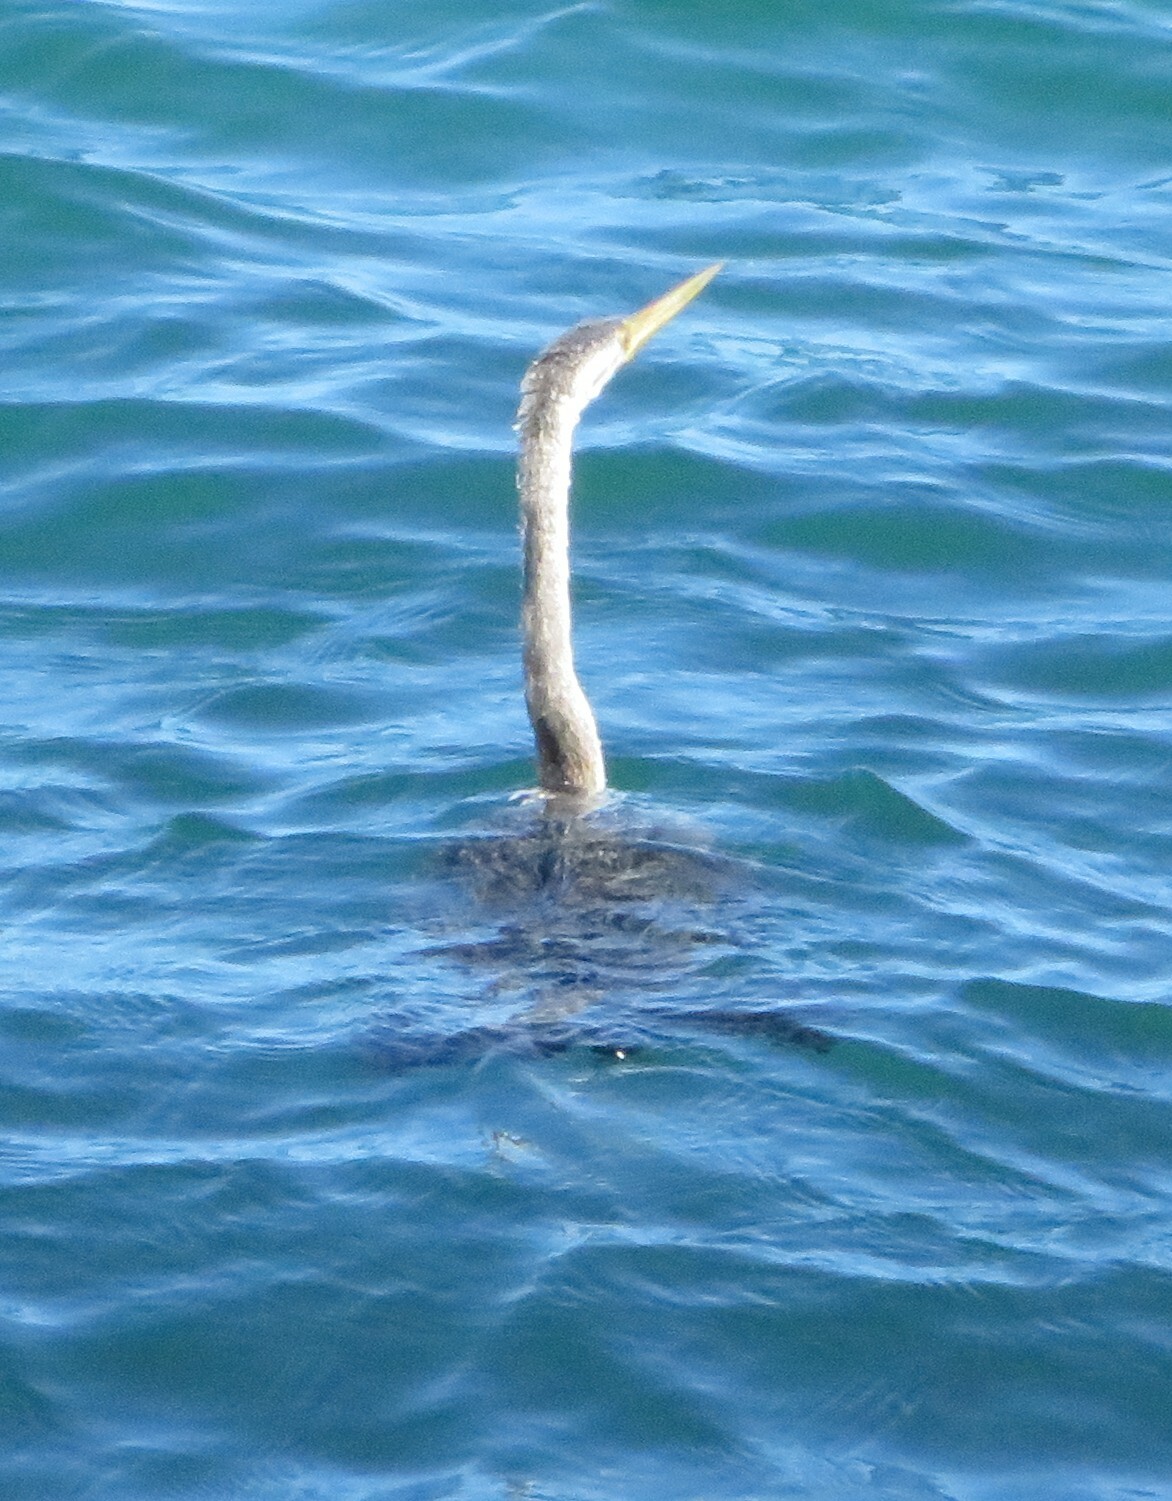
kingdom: Animalia
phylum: Chordata
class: Aves
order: Suliformes
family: Anhingidae
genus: Anhinga
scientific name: Anhinga novaehollandiae
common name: Australasian darter
